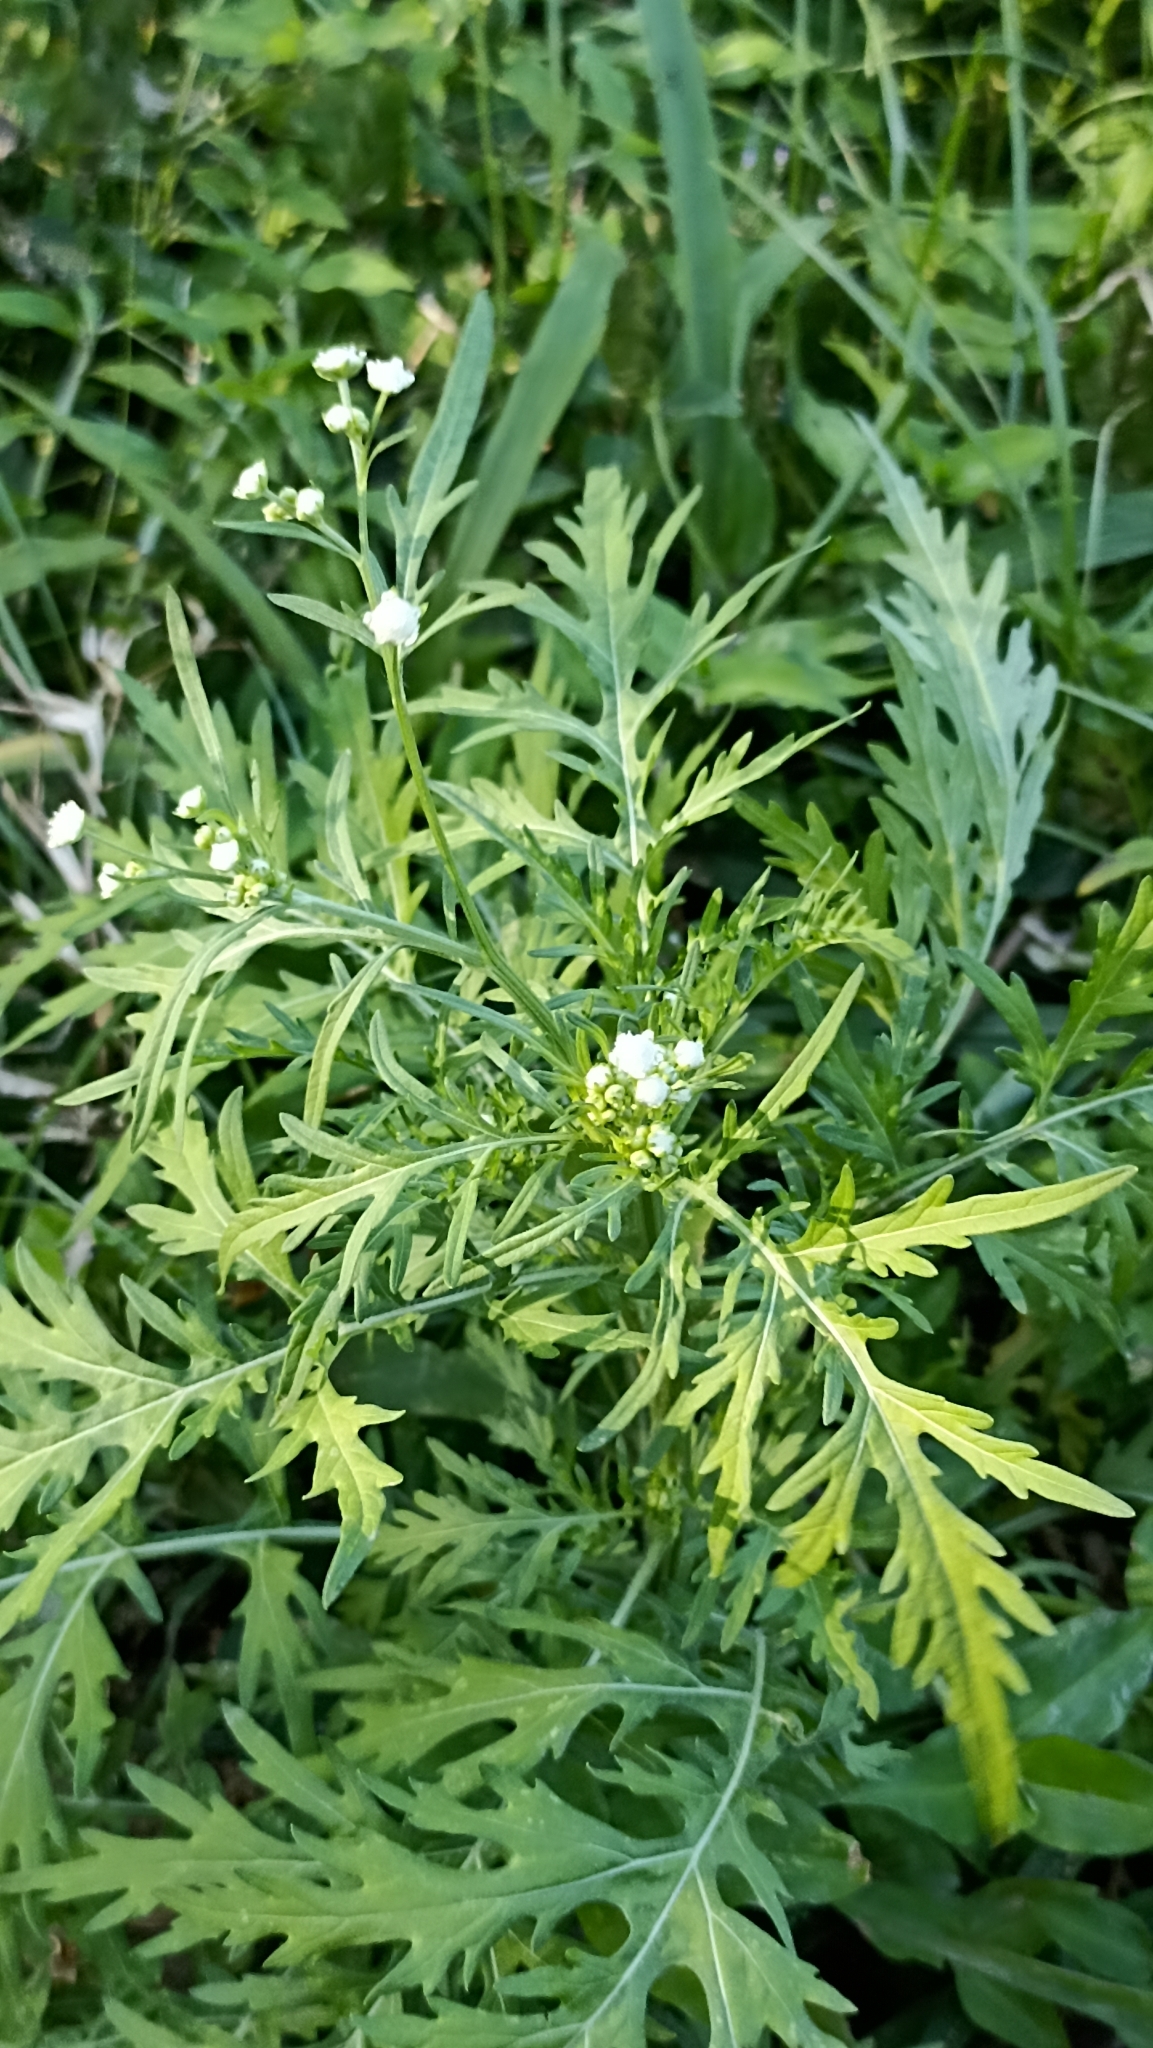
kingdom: Plantae
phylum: Tracheophyta
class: Magnoliopsida
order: Asterales
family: Asteraceae
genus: Parthenium
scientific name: Parthenium hysterophorus
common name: Santa maria feverfew
